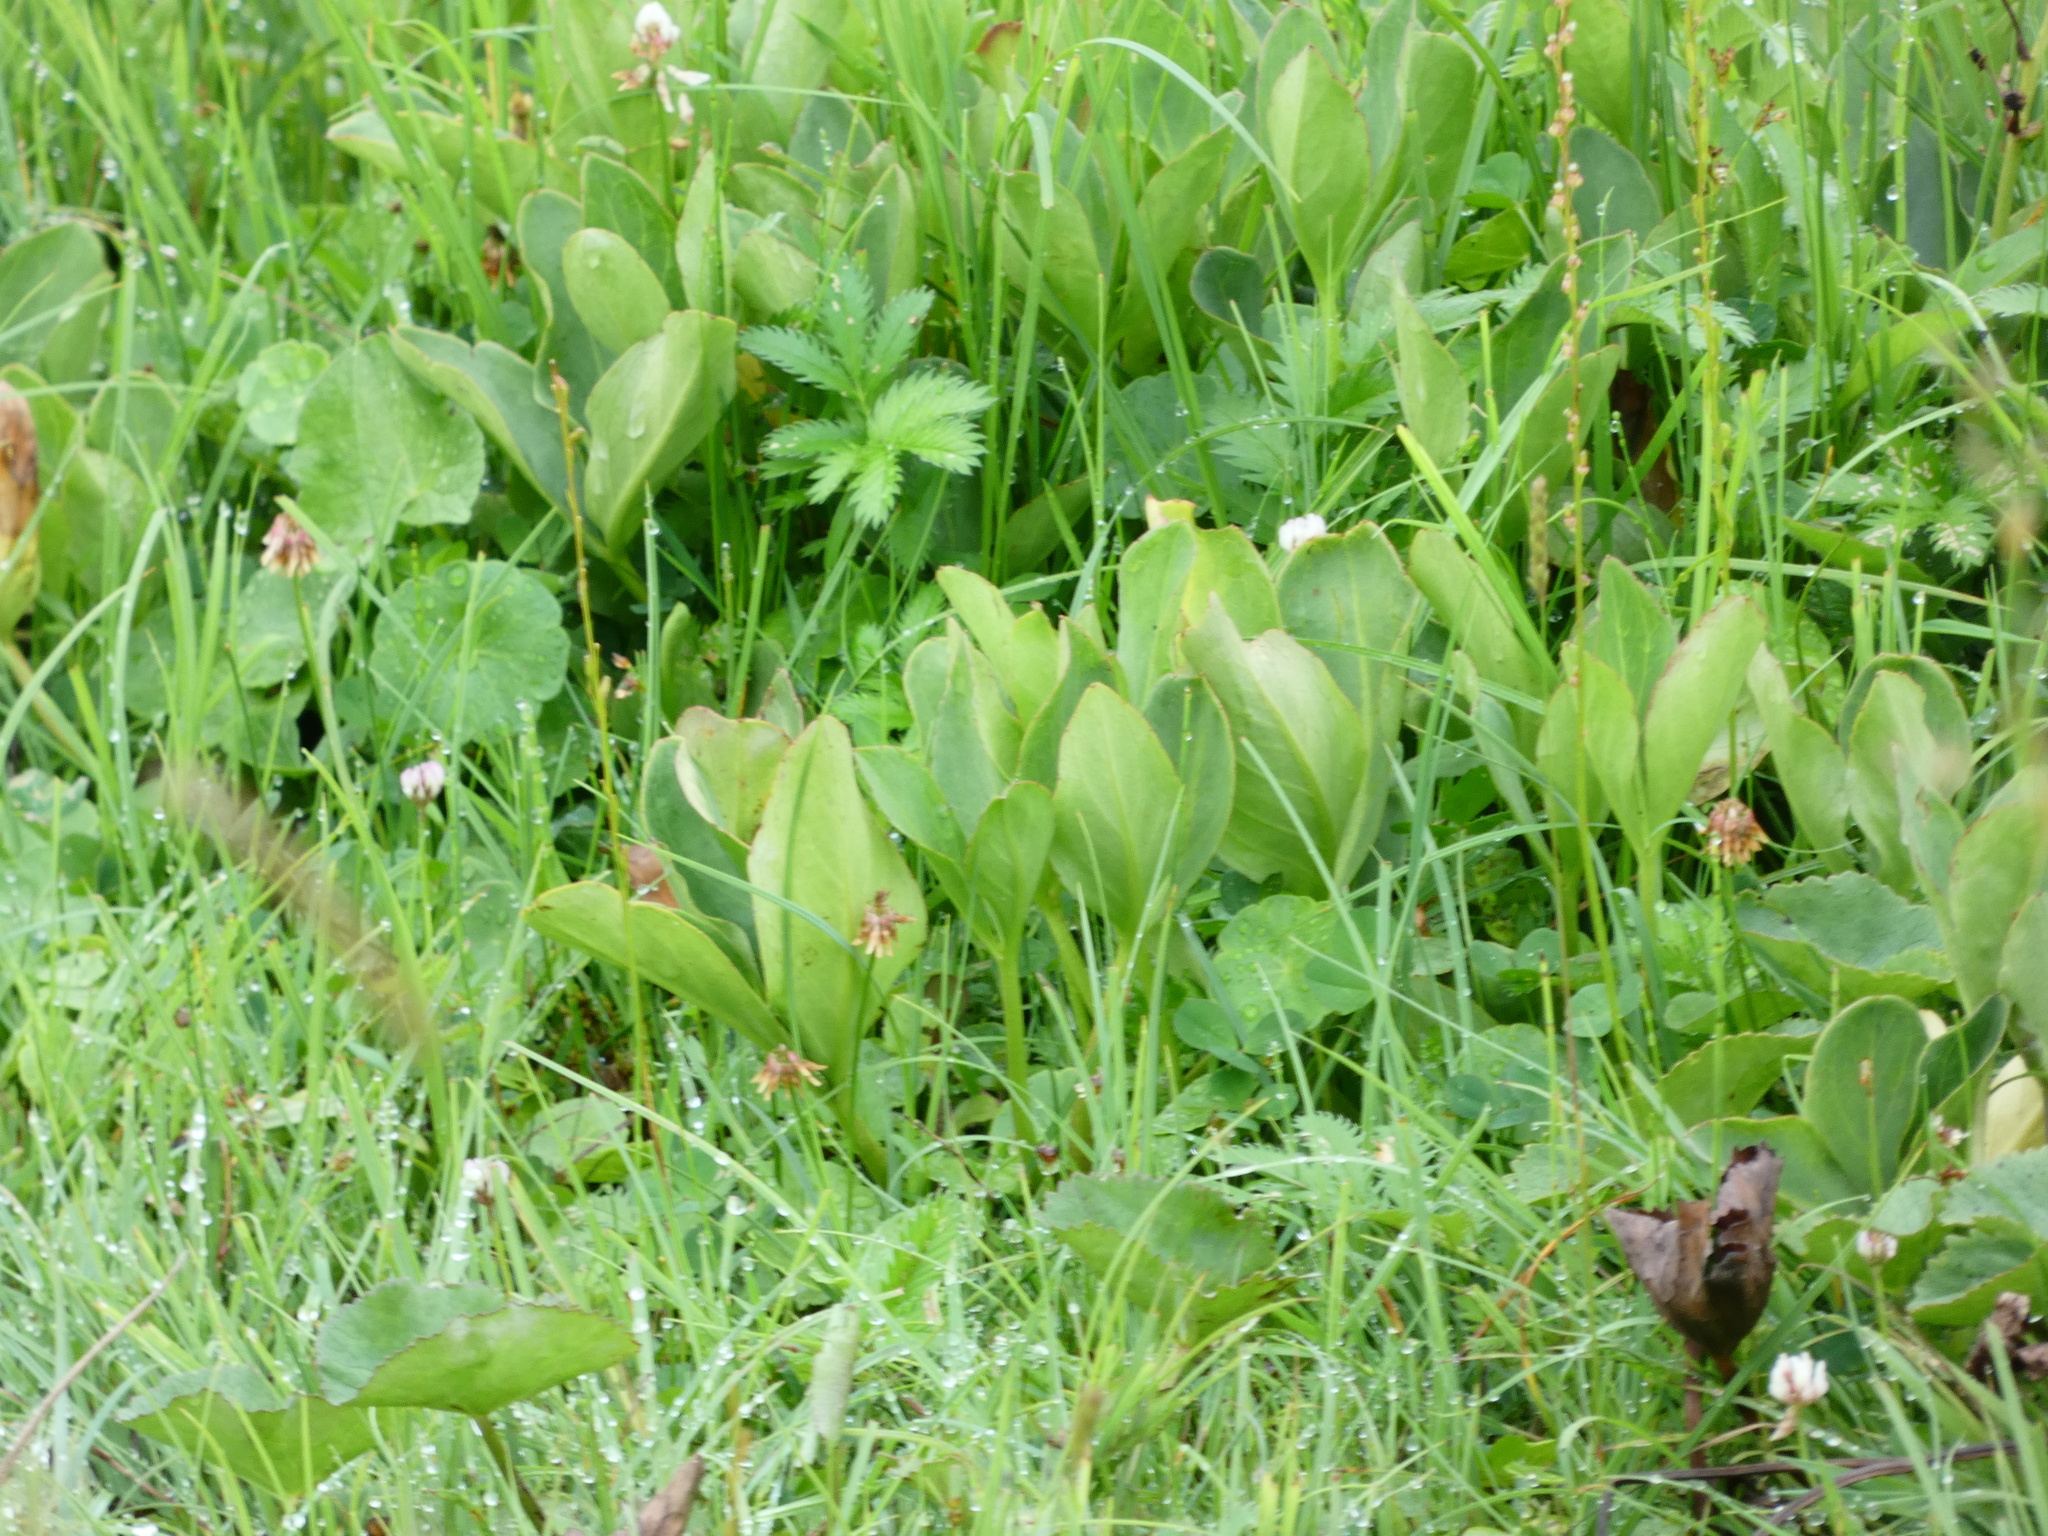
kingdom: Plantae
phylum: Tracheophyta
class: Magnoliopsida
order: Asterales
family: Menyanthaceae
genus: Menyanthes
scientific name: Menyanthes trifoliata
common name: Bogbean
